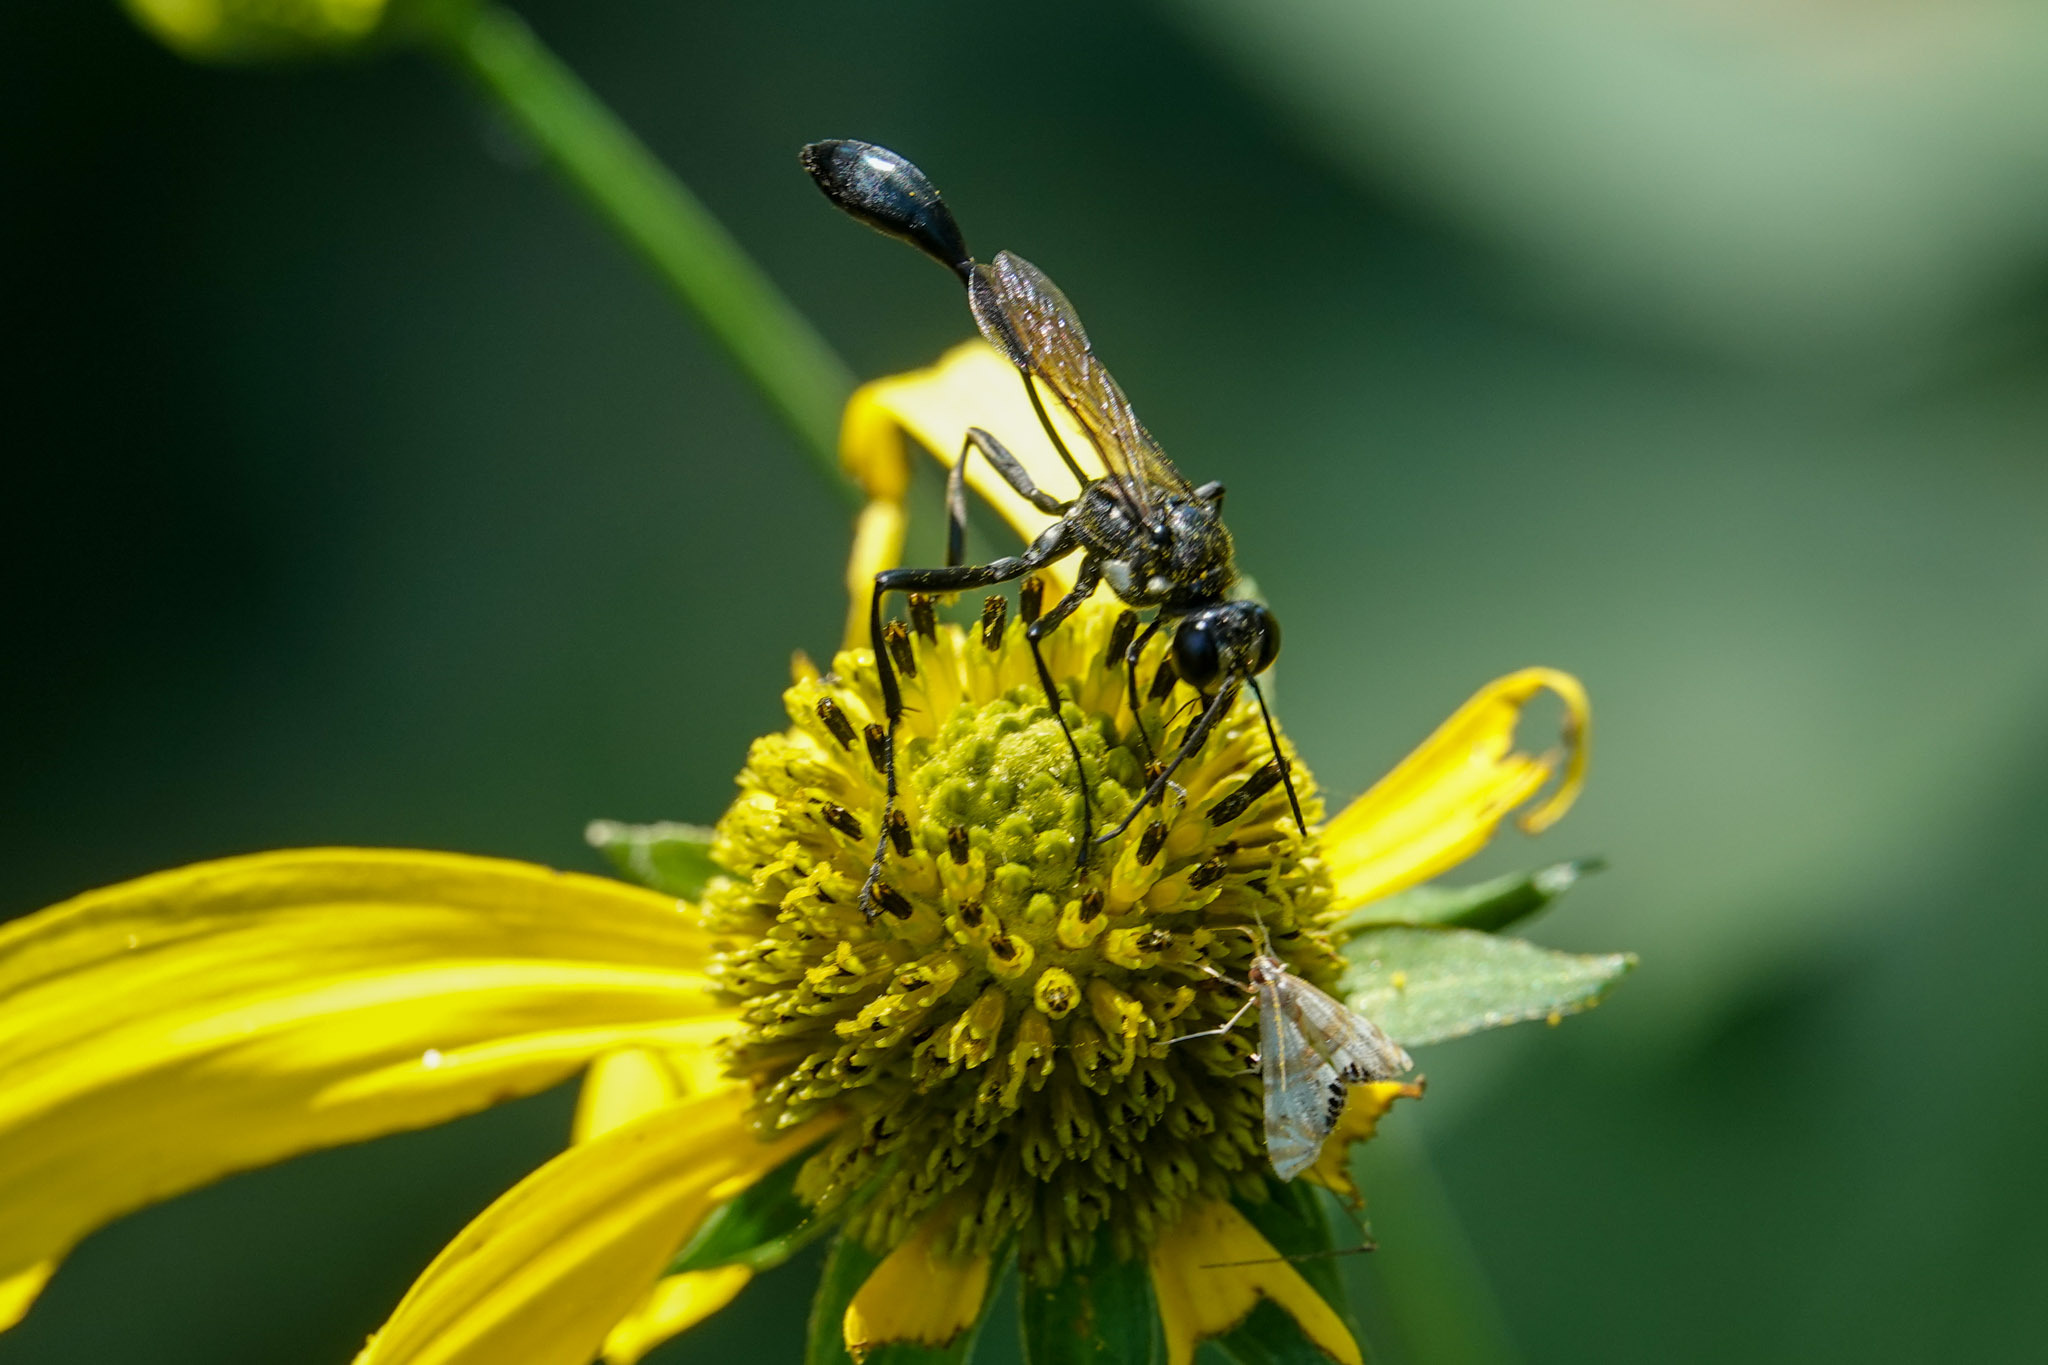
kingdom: Animalia
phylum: Arthropoda
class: Insecta
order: Hymenoptera
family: Sphecidae
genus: Eremnophila
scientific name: Eremnophila aureonotata
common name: Gold-marked thread-waisted wasp
